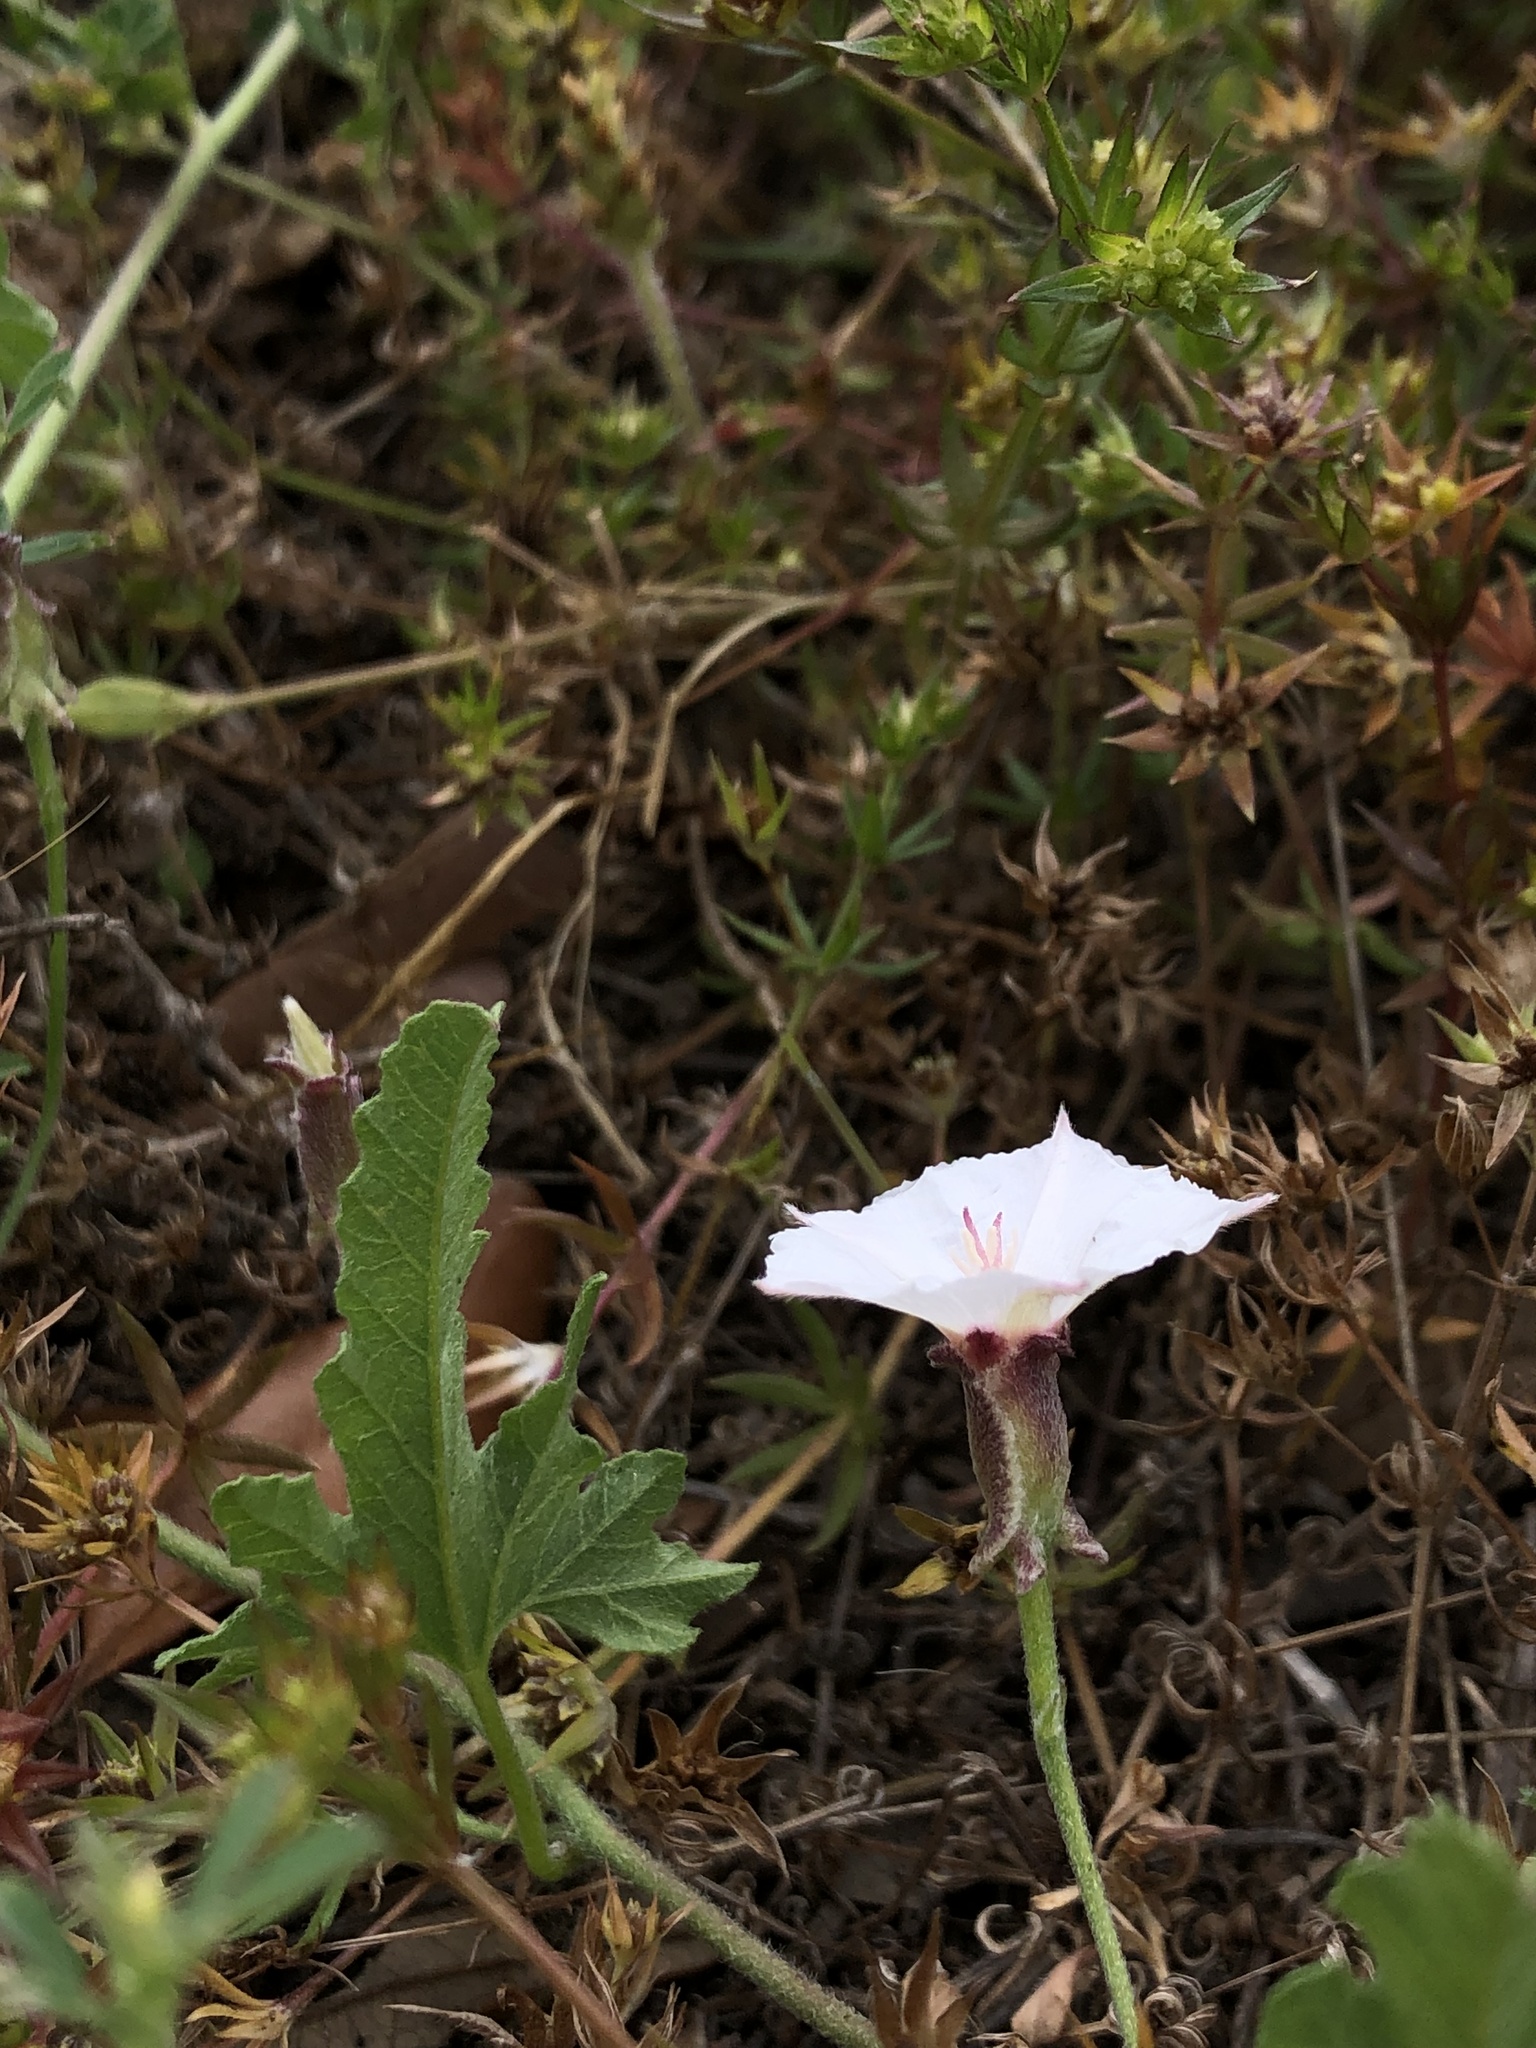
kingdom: Plantae
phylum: Tracheophyta
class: Magnoliopsida
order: Solanales
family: Convolvulaceae
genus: Convolvulus
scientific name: Convolvulus equitans
